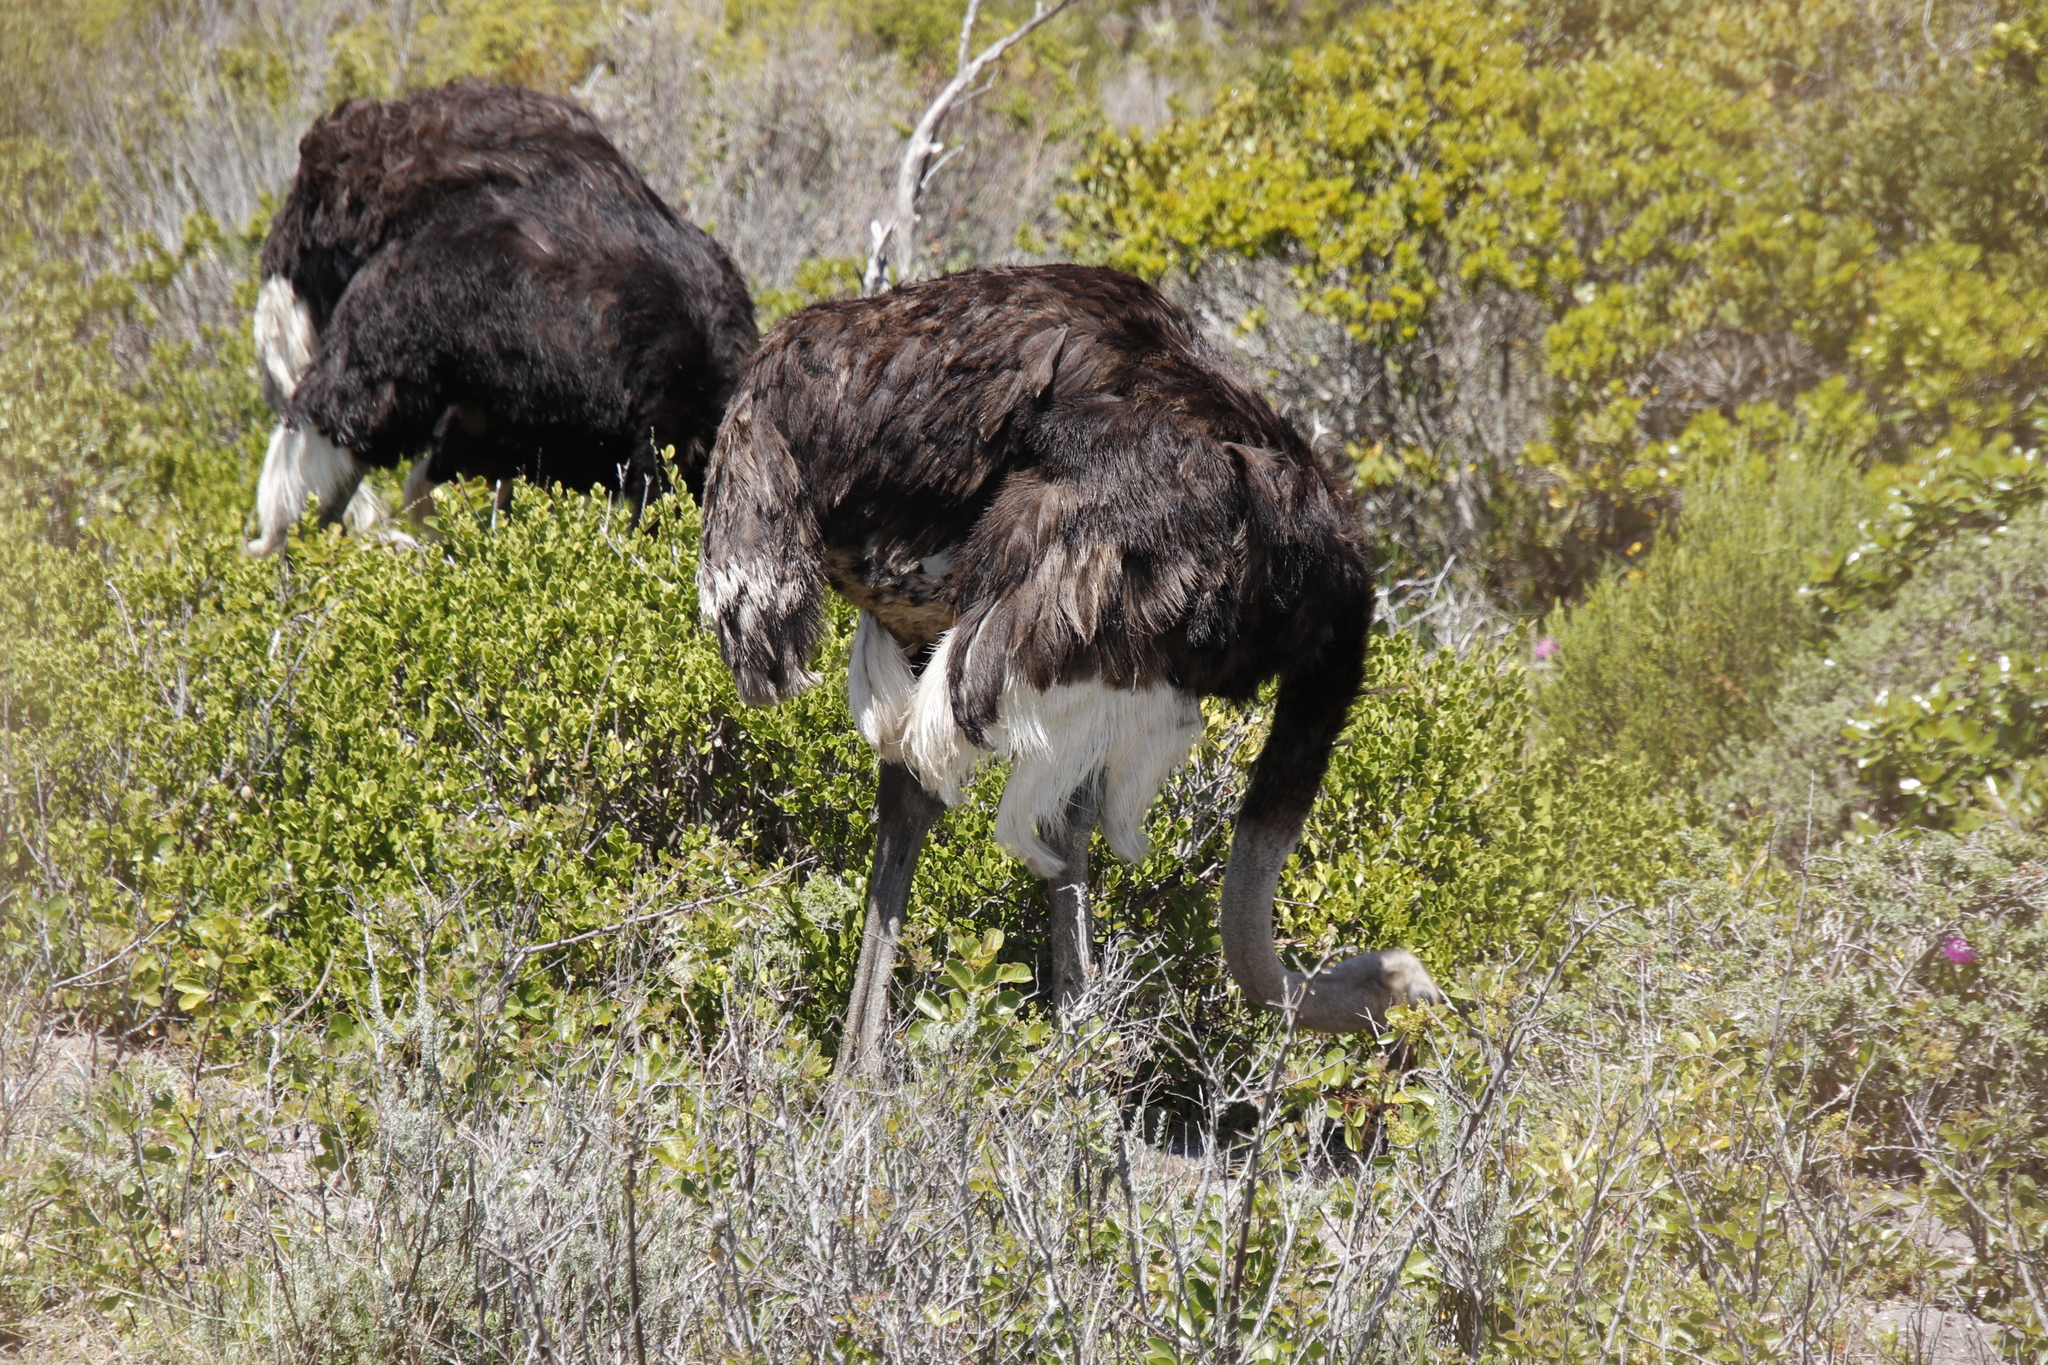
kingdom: Animalia
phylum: Chordata
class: Aves
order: Struthioniformes
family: Struthionidae
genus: Struthio
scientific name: Struthio camelus
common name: Common ostrich
